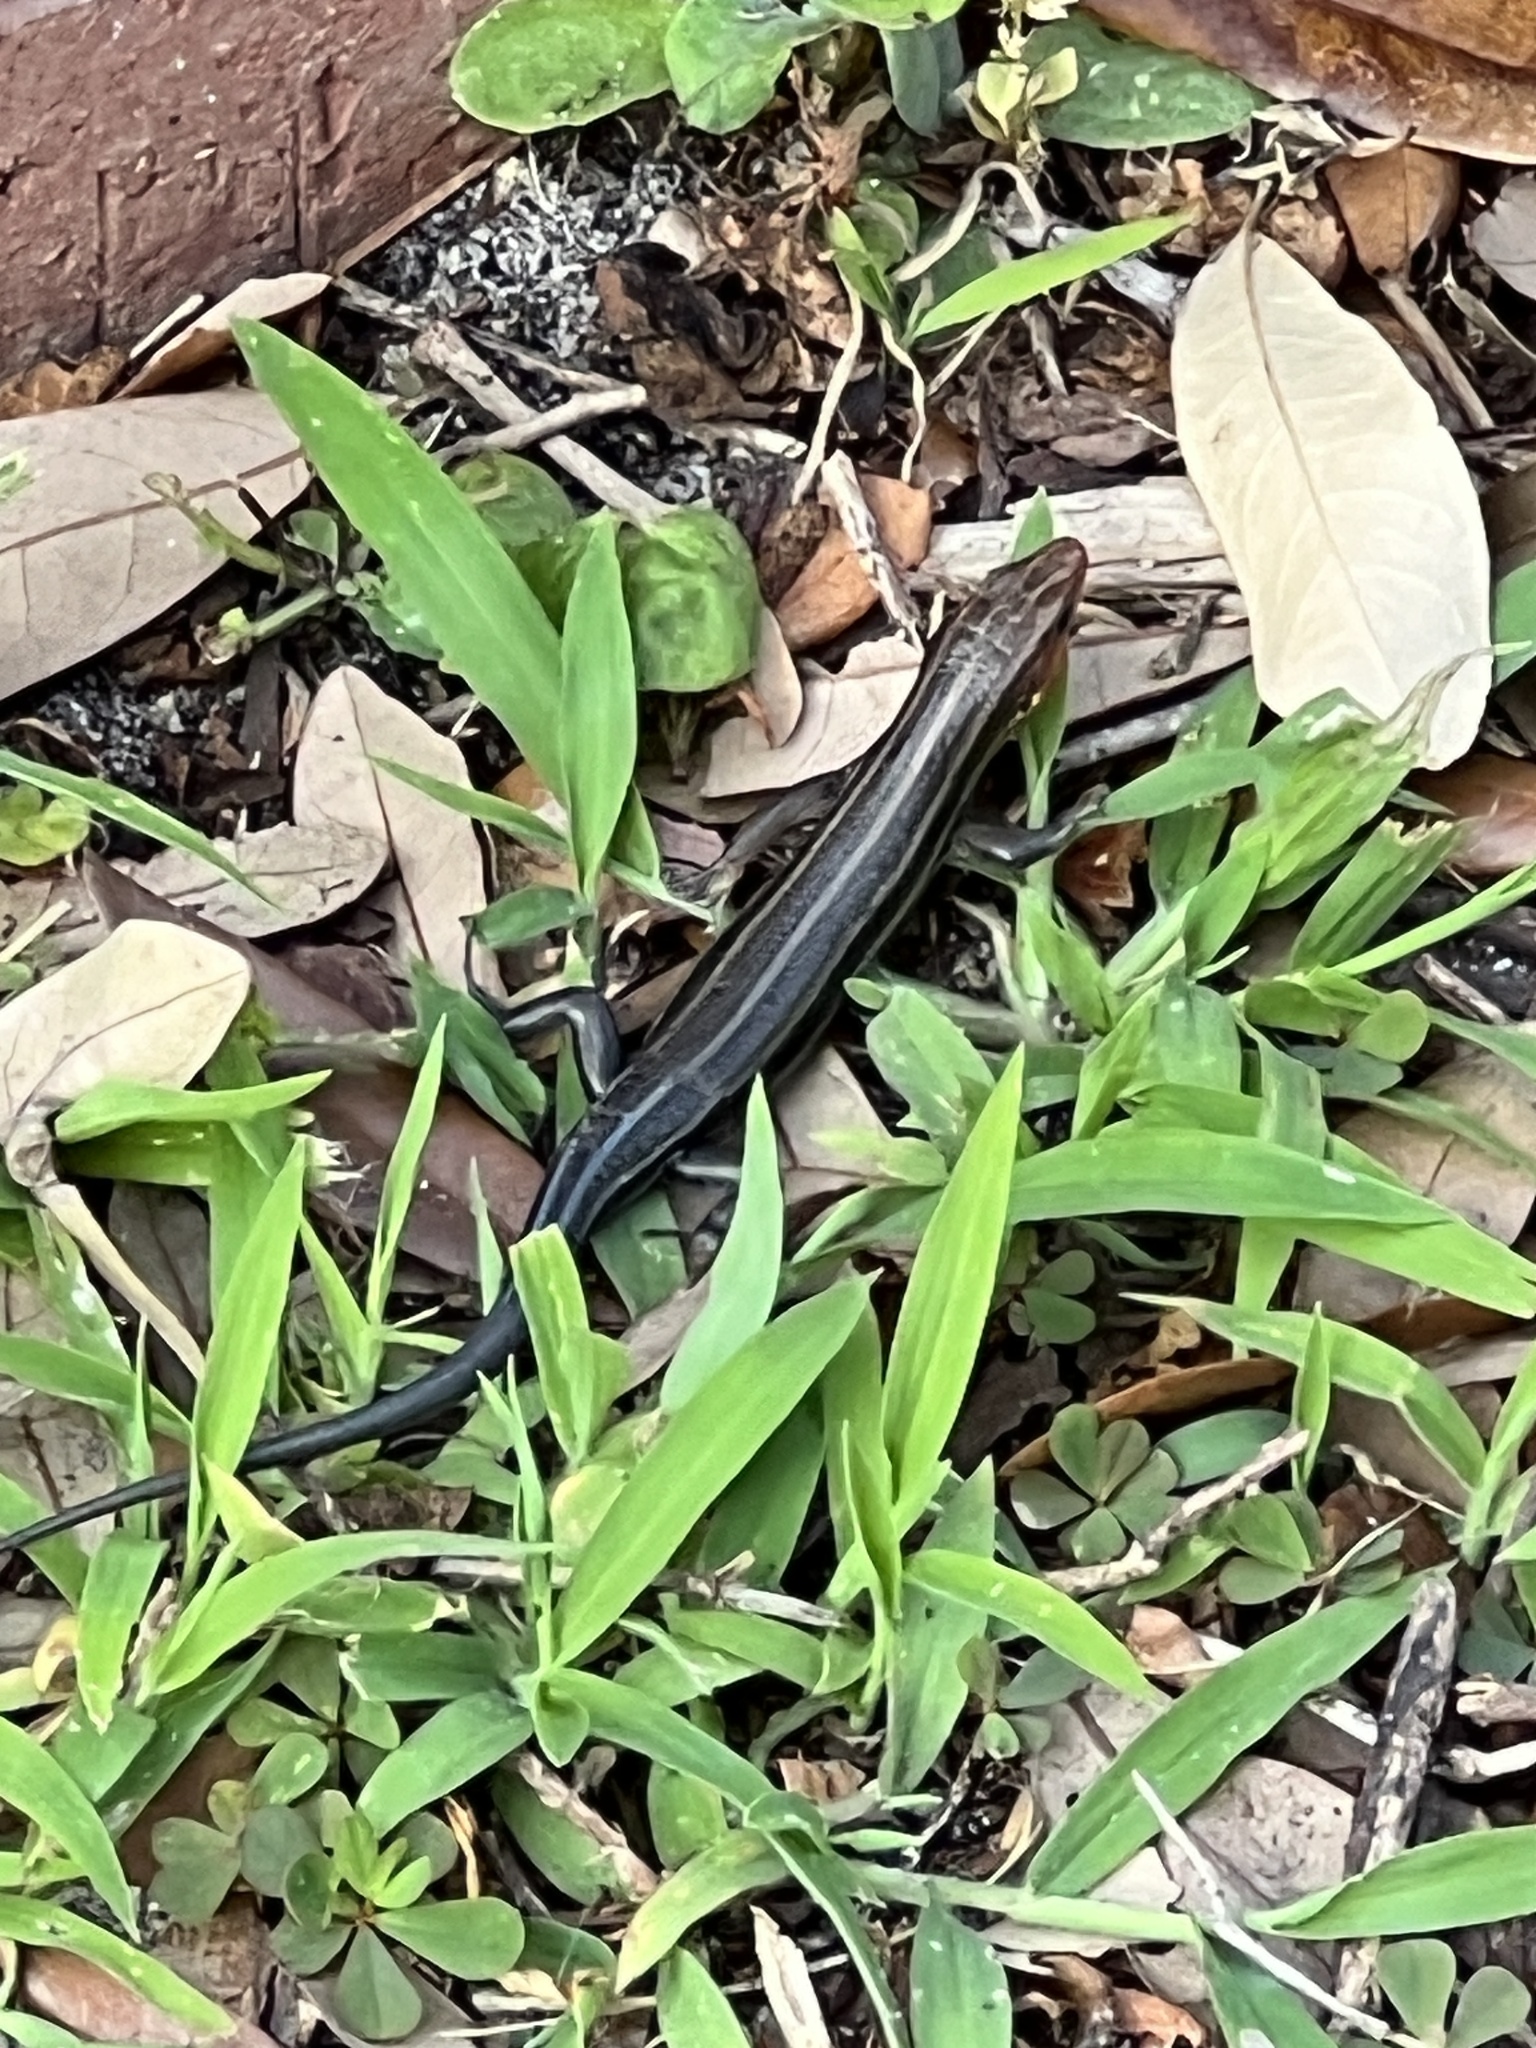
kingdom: Animalia
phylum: Chordata
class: Squamata
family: Scincidae
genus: Plestiodon
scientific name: Plestiodon fasciatus
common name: Five-lined skink
